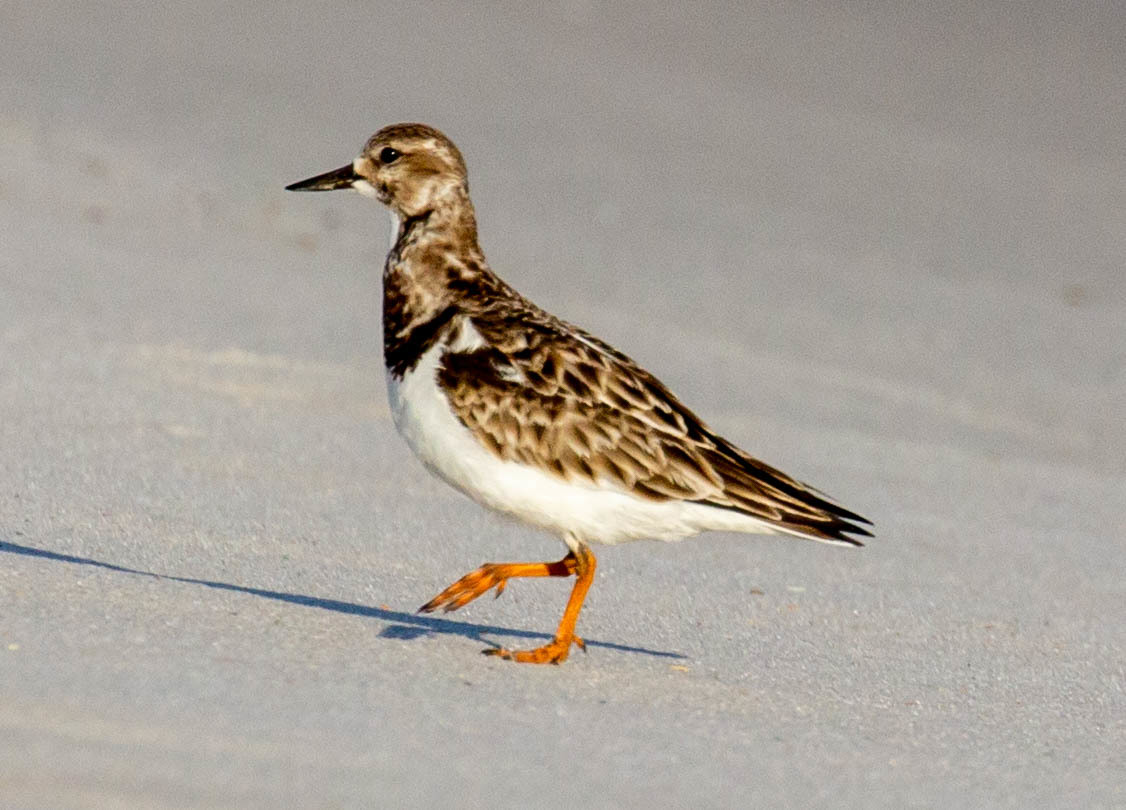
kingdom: Animalia
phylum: Chordata
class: Aves
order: Charadriiformes
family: Scolopacidae
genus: Arenaria
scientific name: Arenaria interpres
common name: Ruddy turnstone
